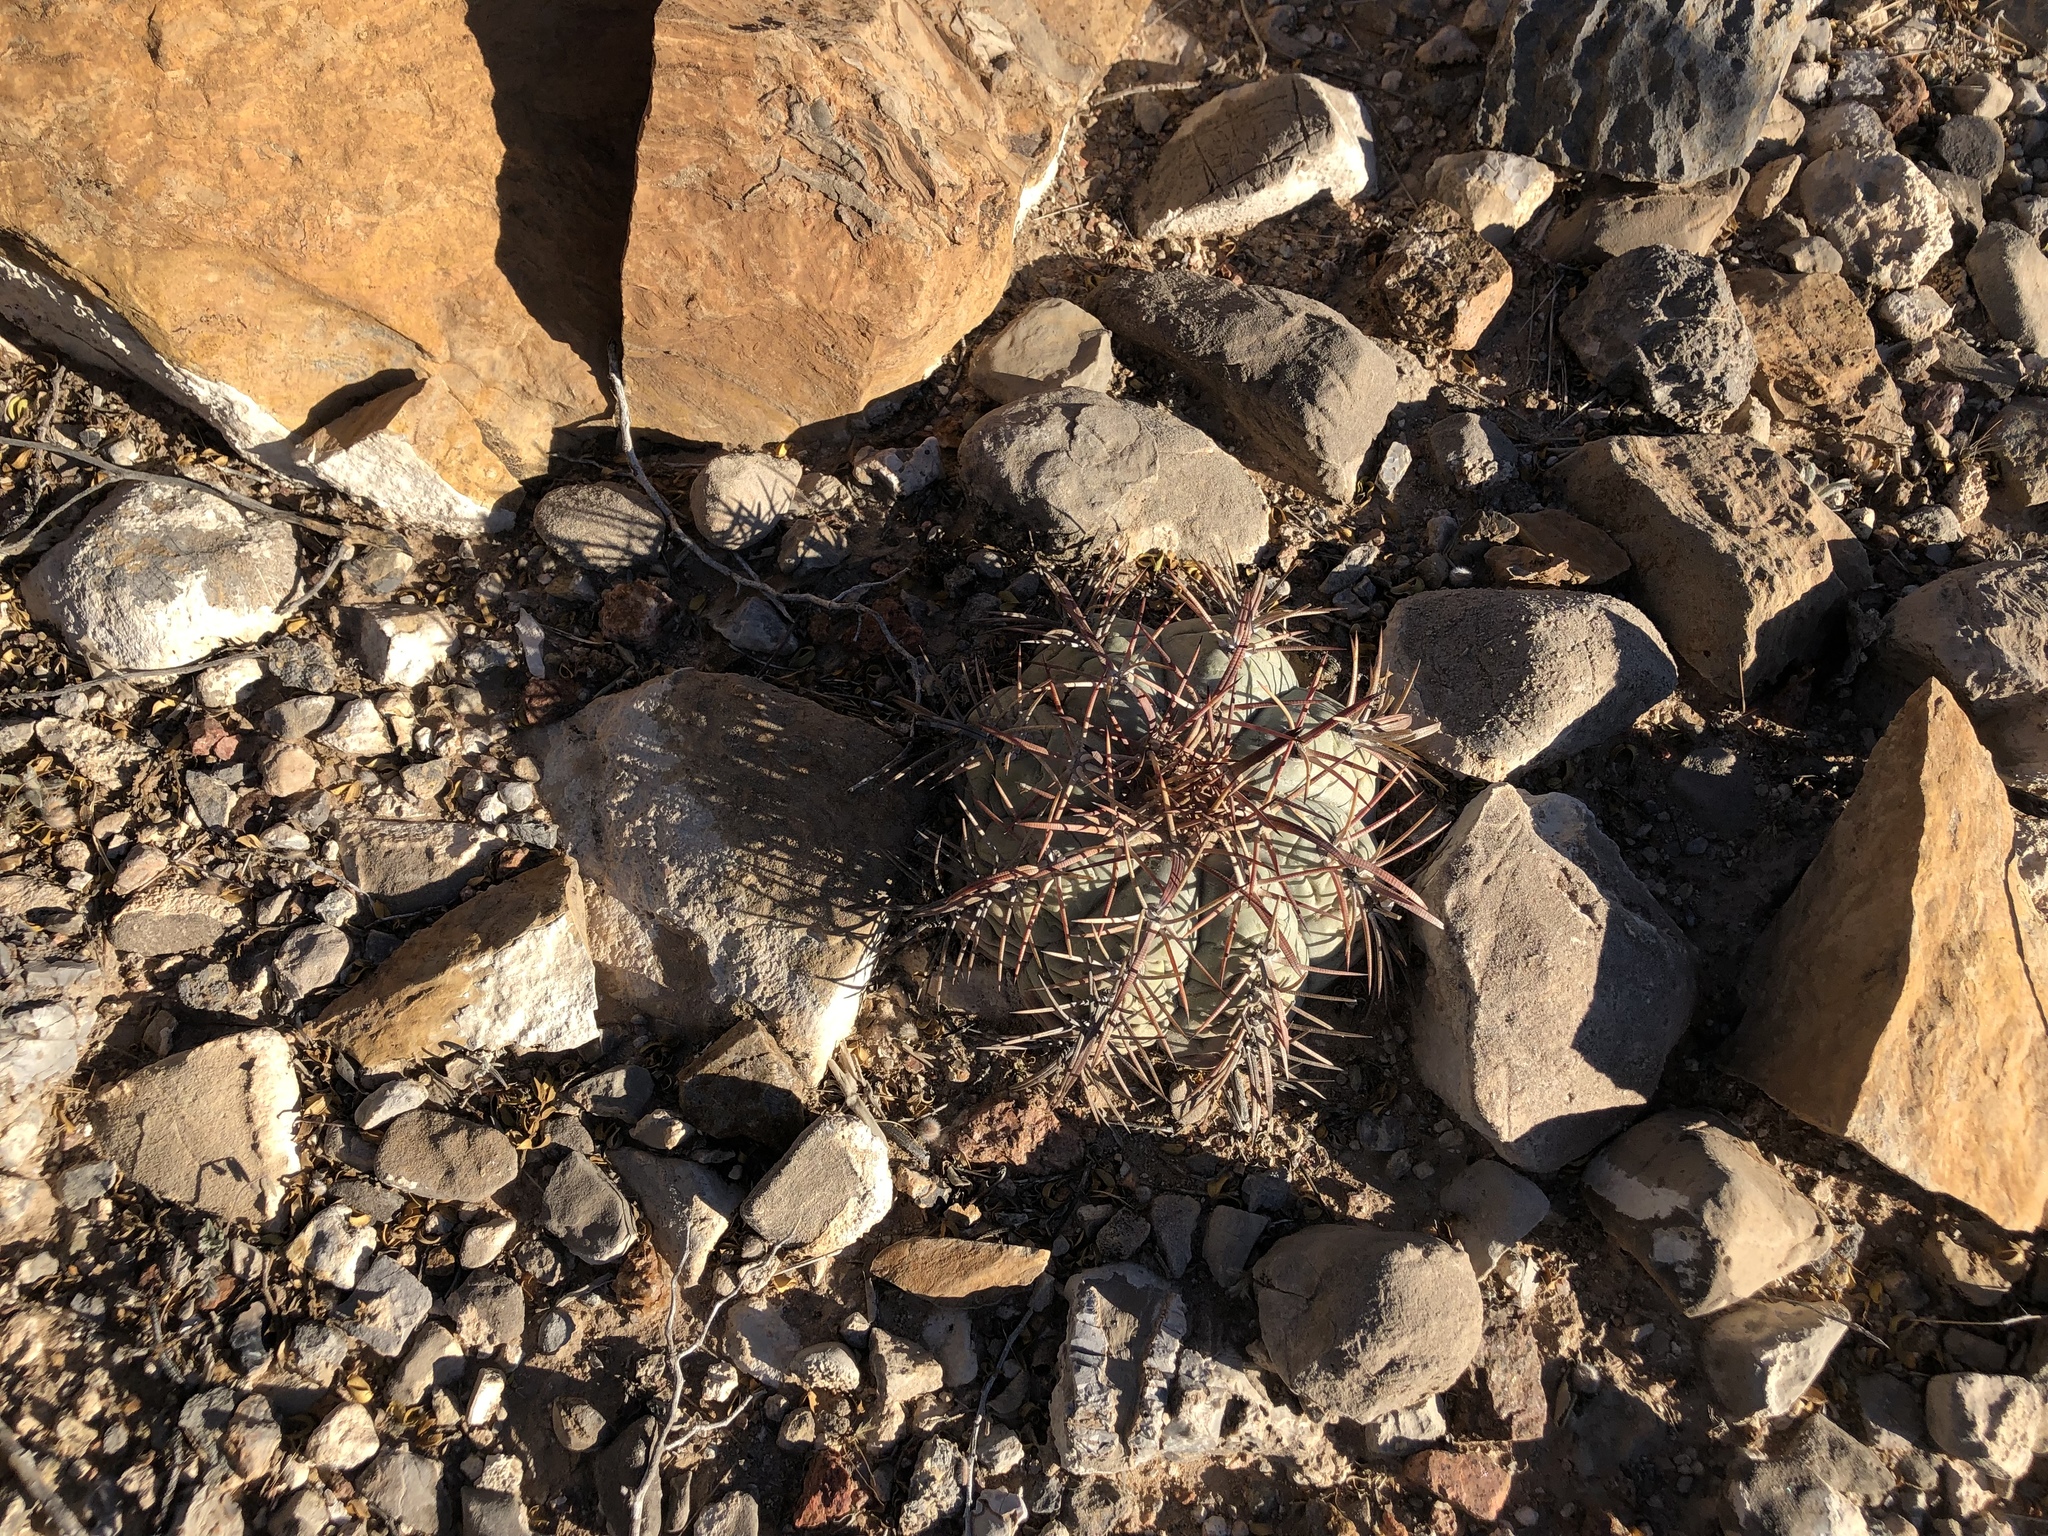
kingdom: Plantae
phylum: Tracheophyta
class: Magnoliopsida
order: Caryophyllales
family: Cactaceae
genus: Echinocactus
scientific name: Echinocactus horizonthalonius
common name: Devilshead
